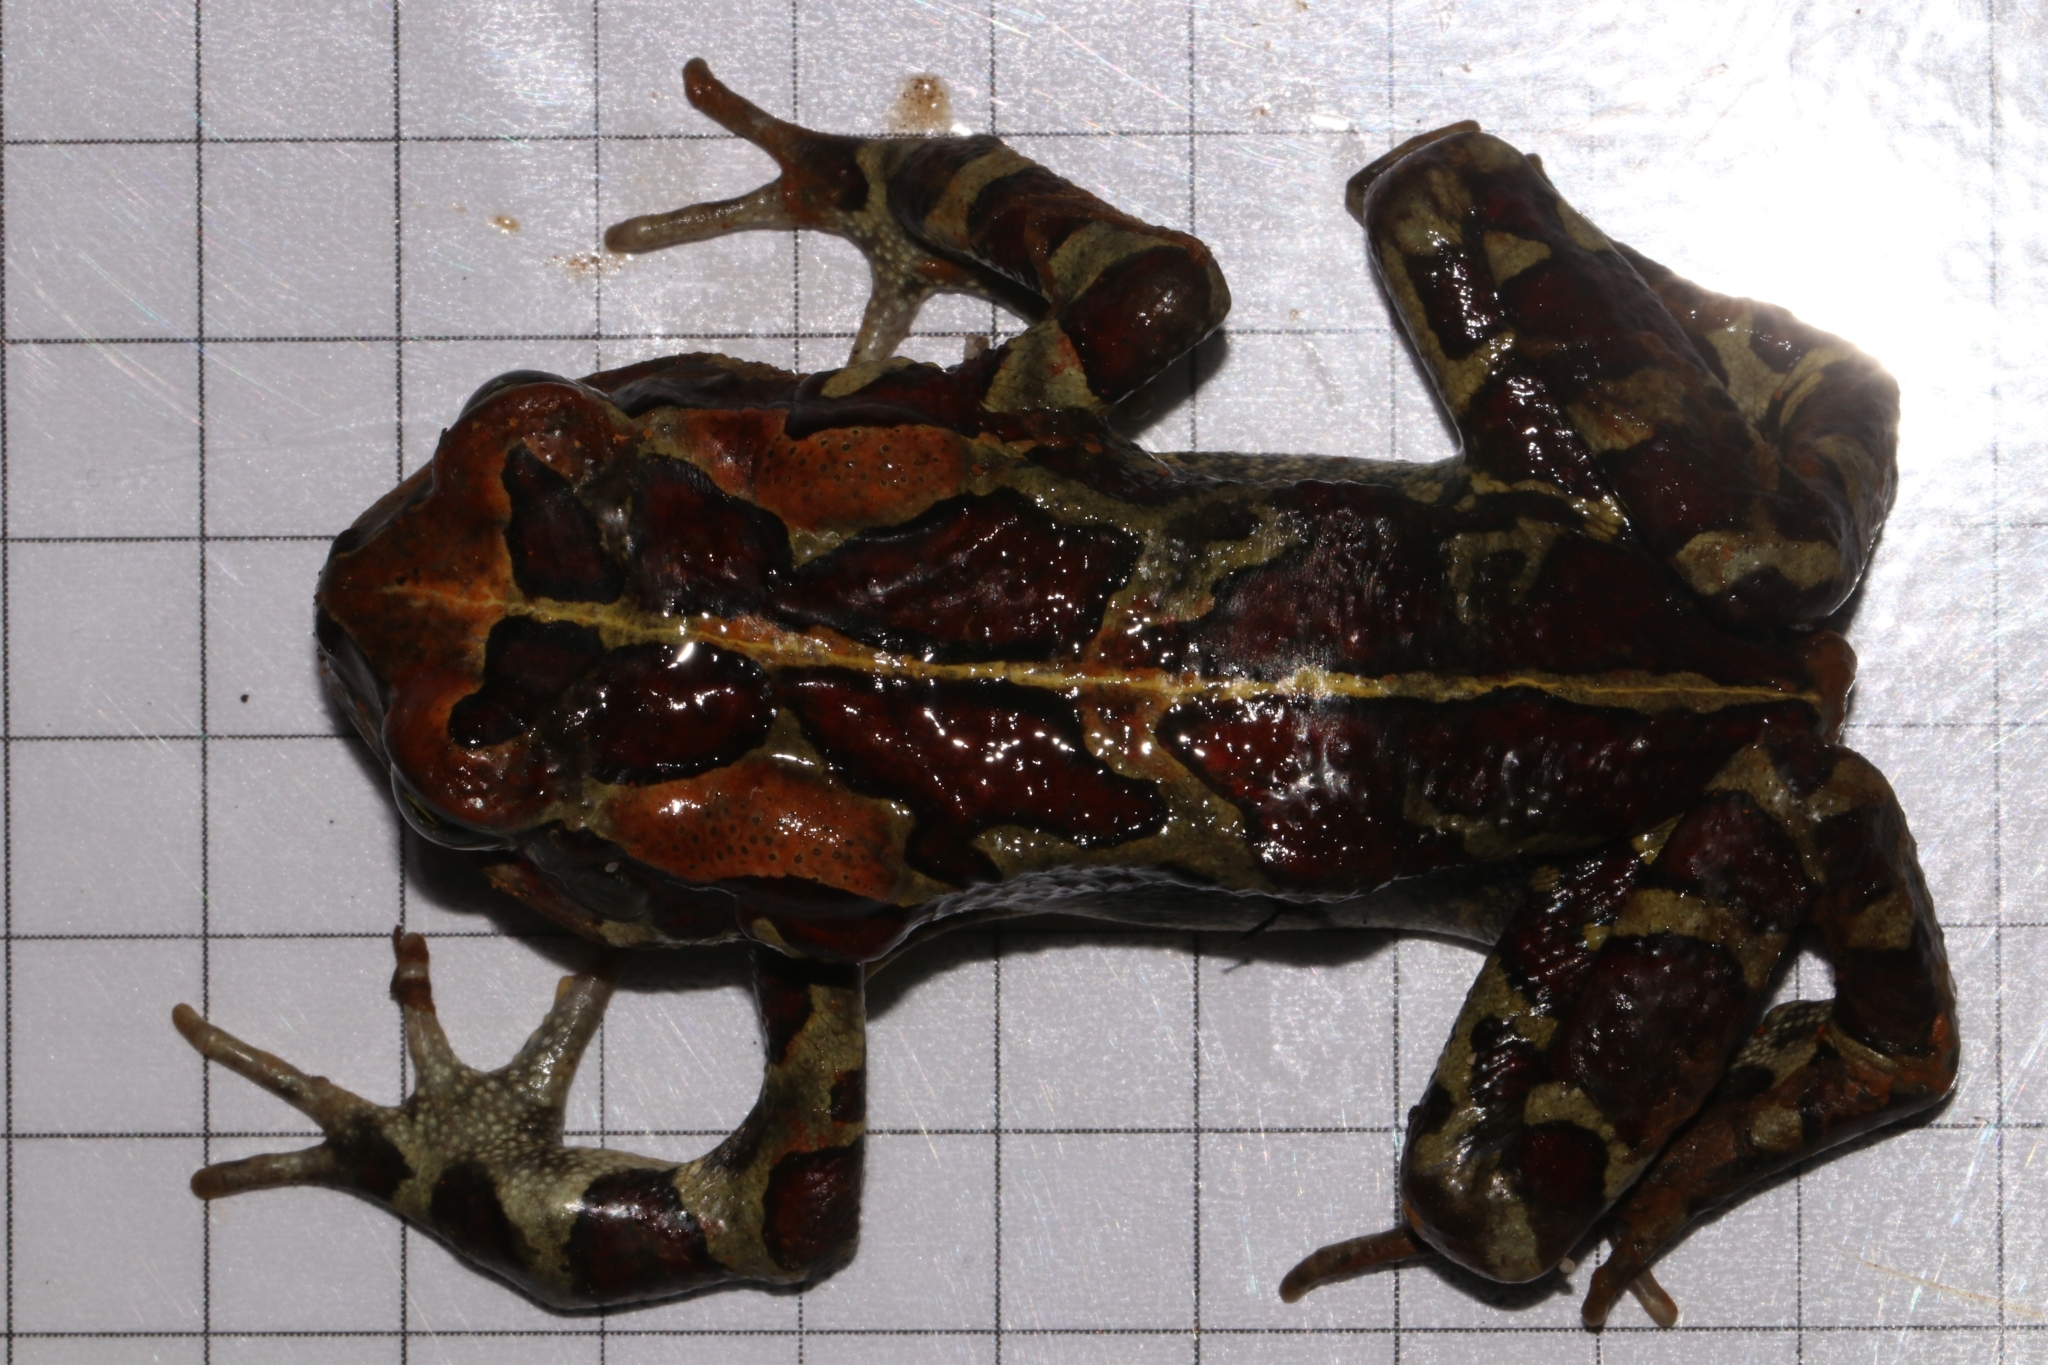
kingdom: Animalia
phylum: Chordata
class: Amphibia
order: Anura
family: Bufonidae
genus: Sclerophrys
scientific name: Sclerophrys pantherina
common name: Panther toad
